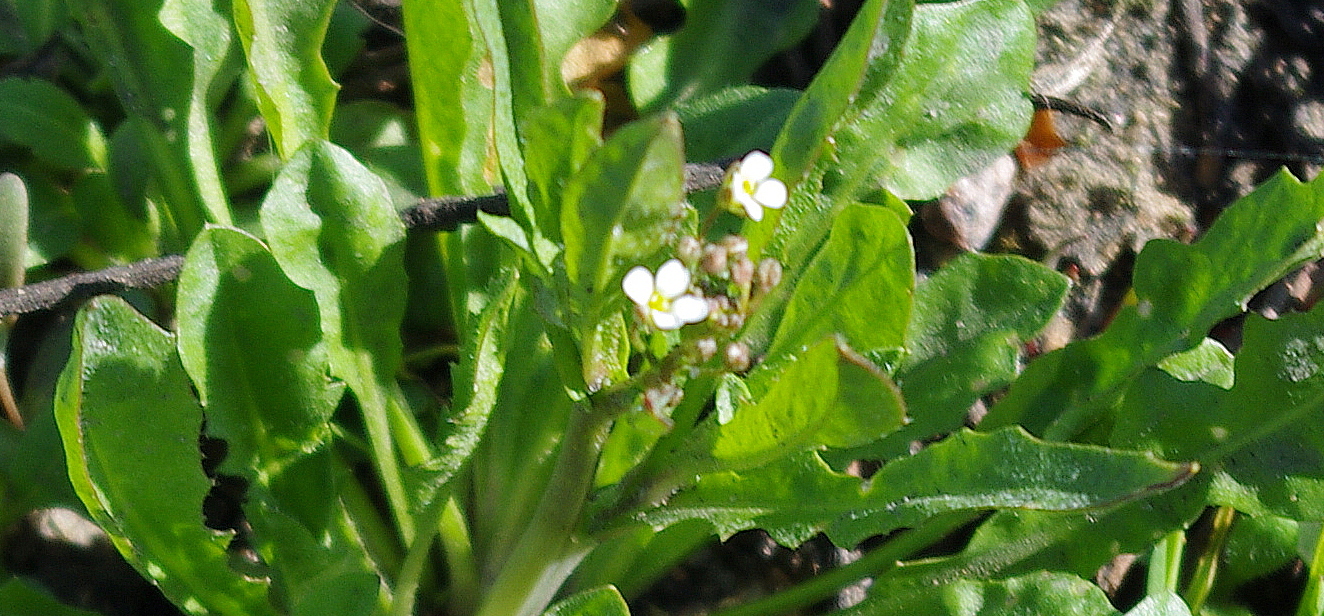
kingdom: Plantae
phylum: Tracheophyta
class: Magnoliopsida
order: Brassicales
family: Brassicaceae
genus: Capsella
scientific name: Capsella bursa-pastoris
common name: Shepherd's purse
